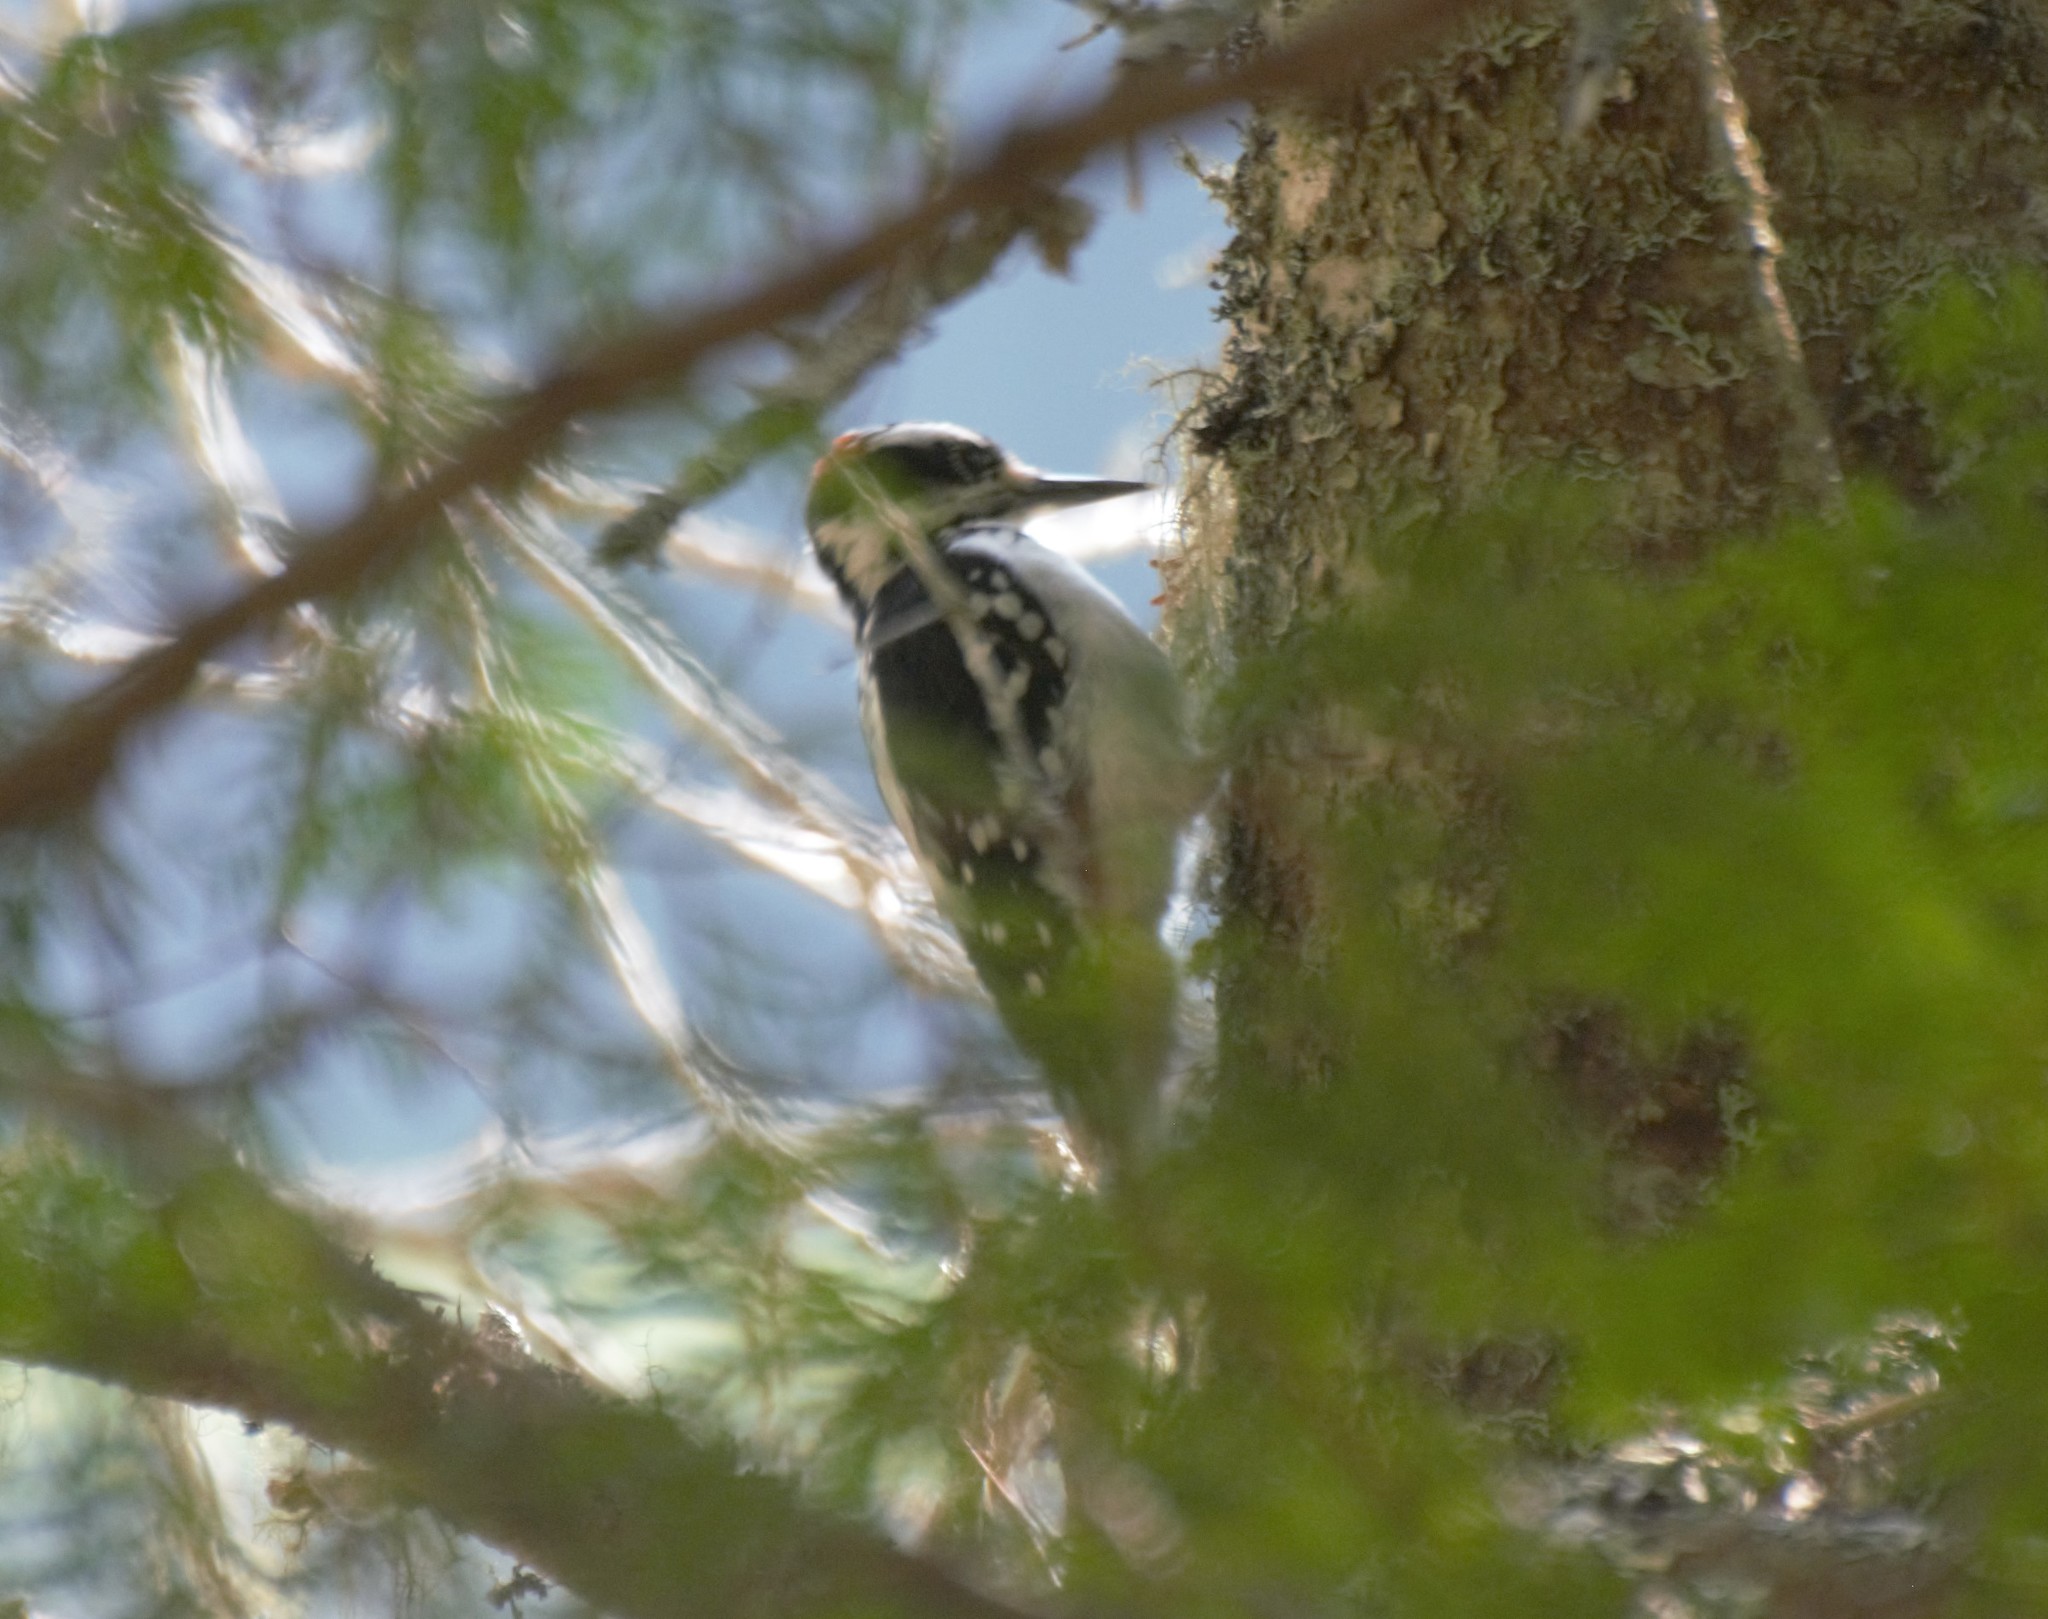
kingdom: Animalia
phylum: Chordata
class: Aves
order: Piciformes
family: Picidae
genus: Leuconotopicus
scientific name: Leuconotopicus villosus
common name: Hairy woodpecker
